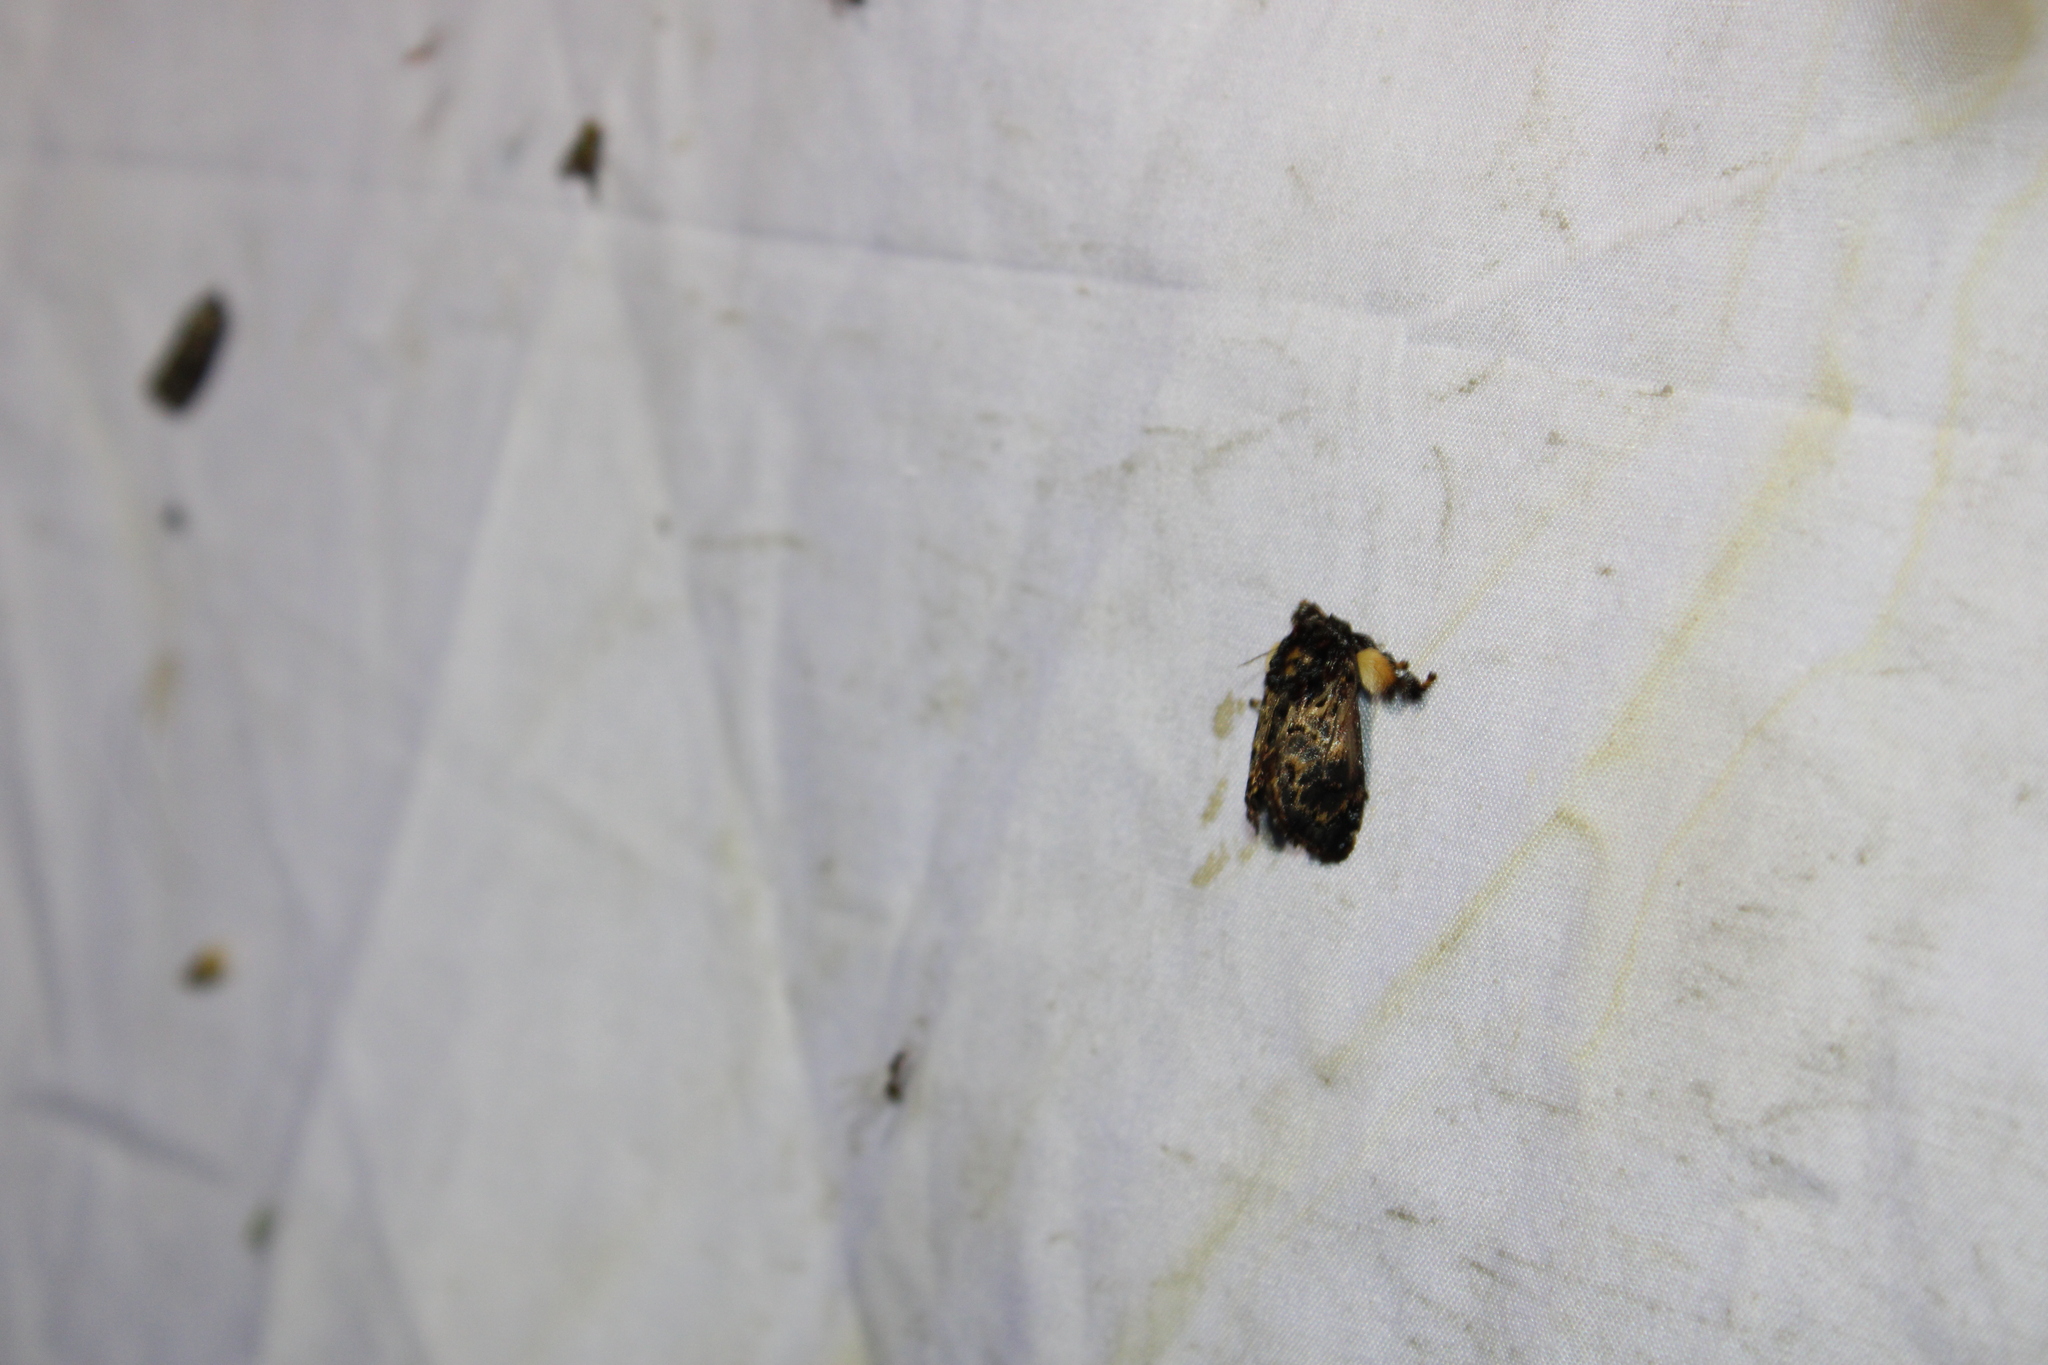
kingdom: Animalia
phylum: Arthropoda
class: Insecta
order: Lepidoptera
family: Limacodidae
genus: Phobetron
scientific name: Phobetron pithecium
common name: Hag moth
